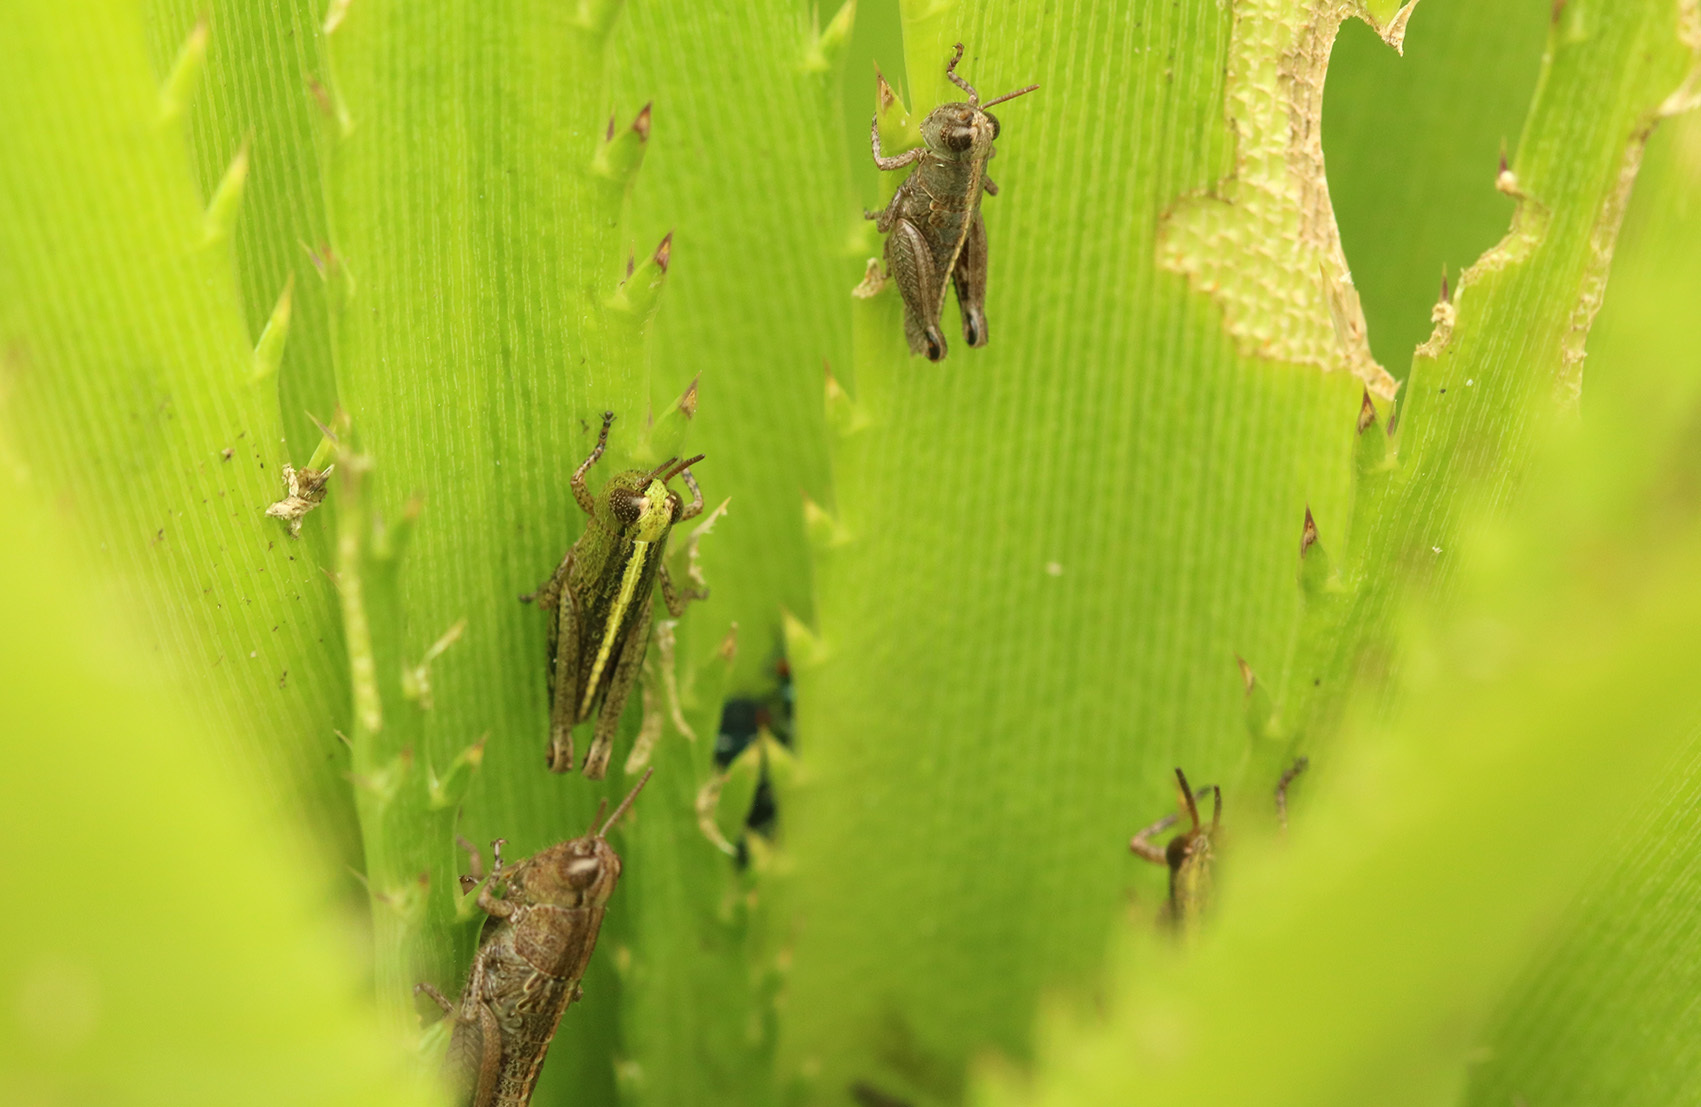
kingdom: Animalia
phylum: Arthropoda
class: Insecta
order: Orthoptera
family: Acrididae
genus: Scotussa
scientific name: Scotussa cliens
